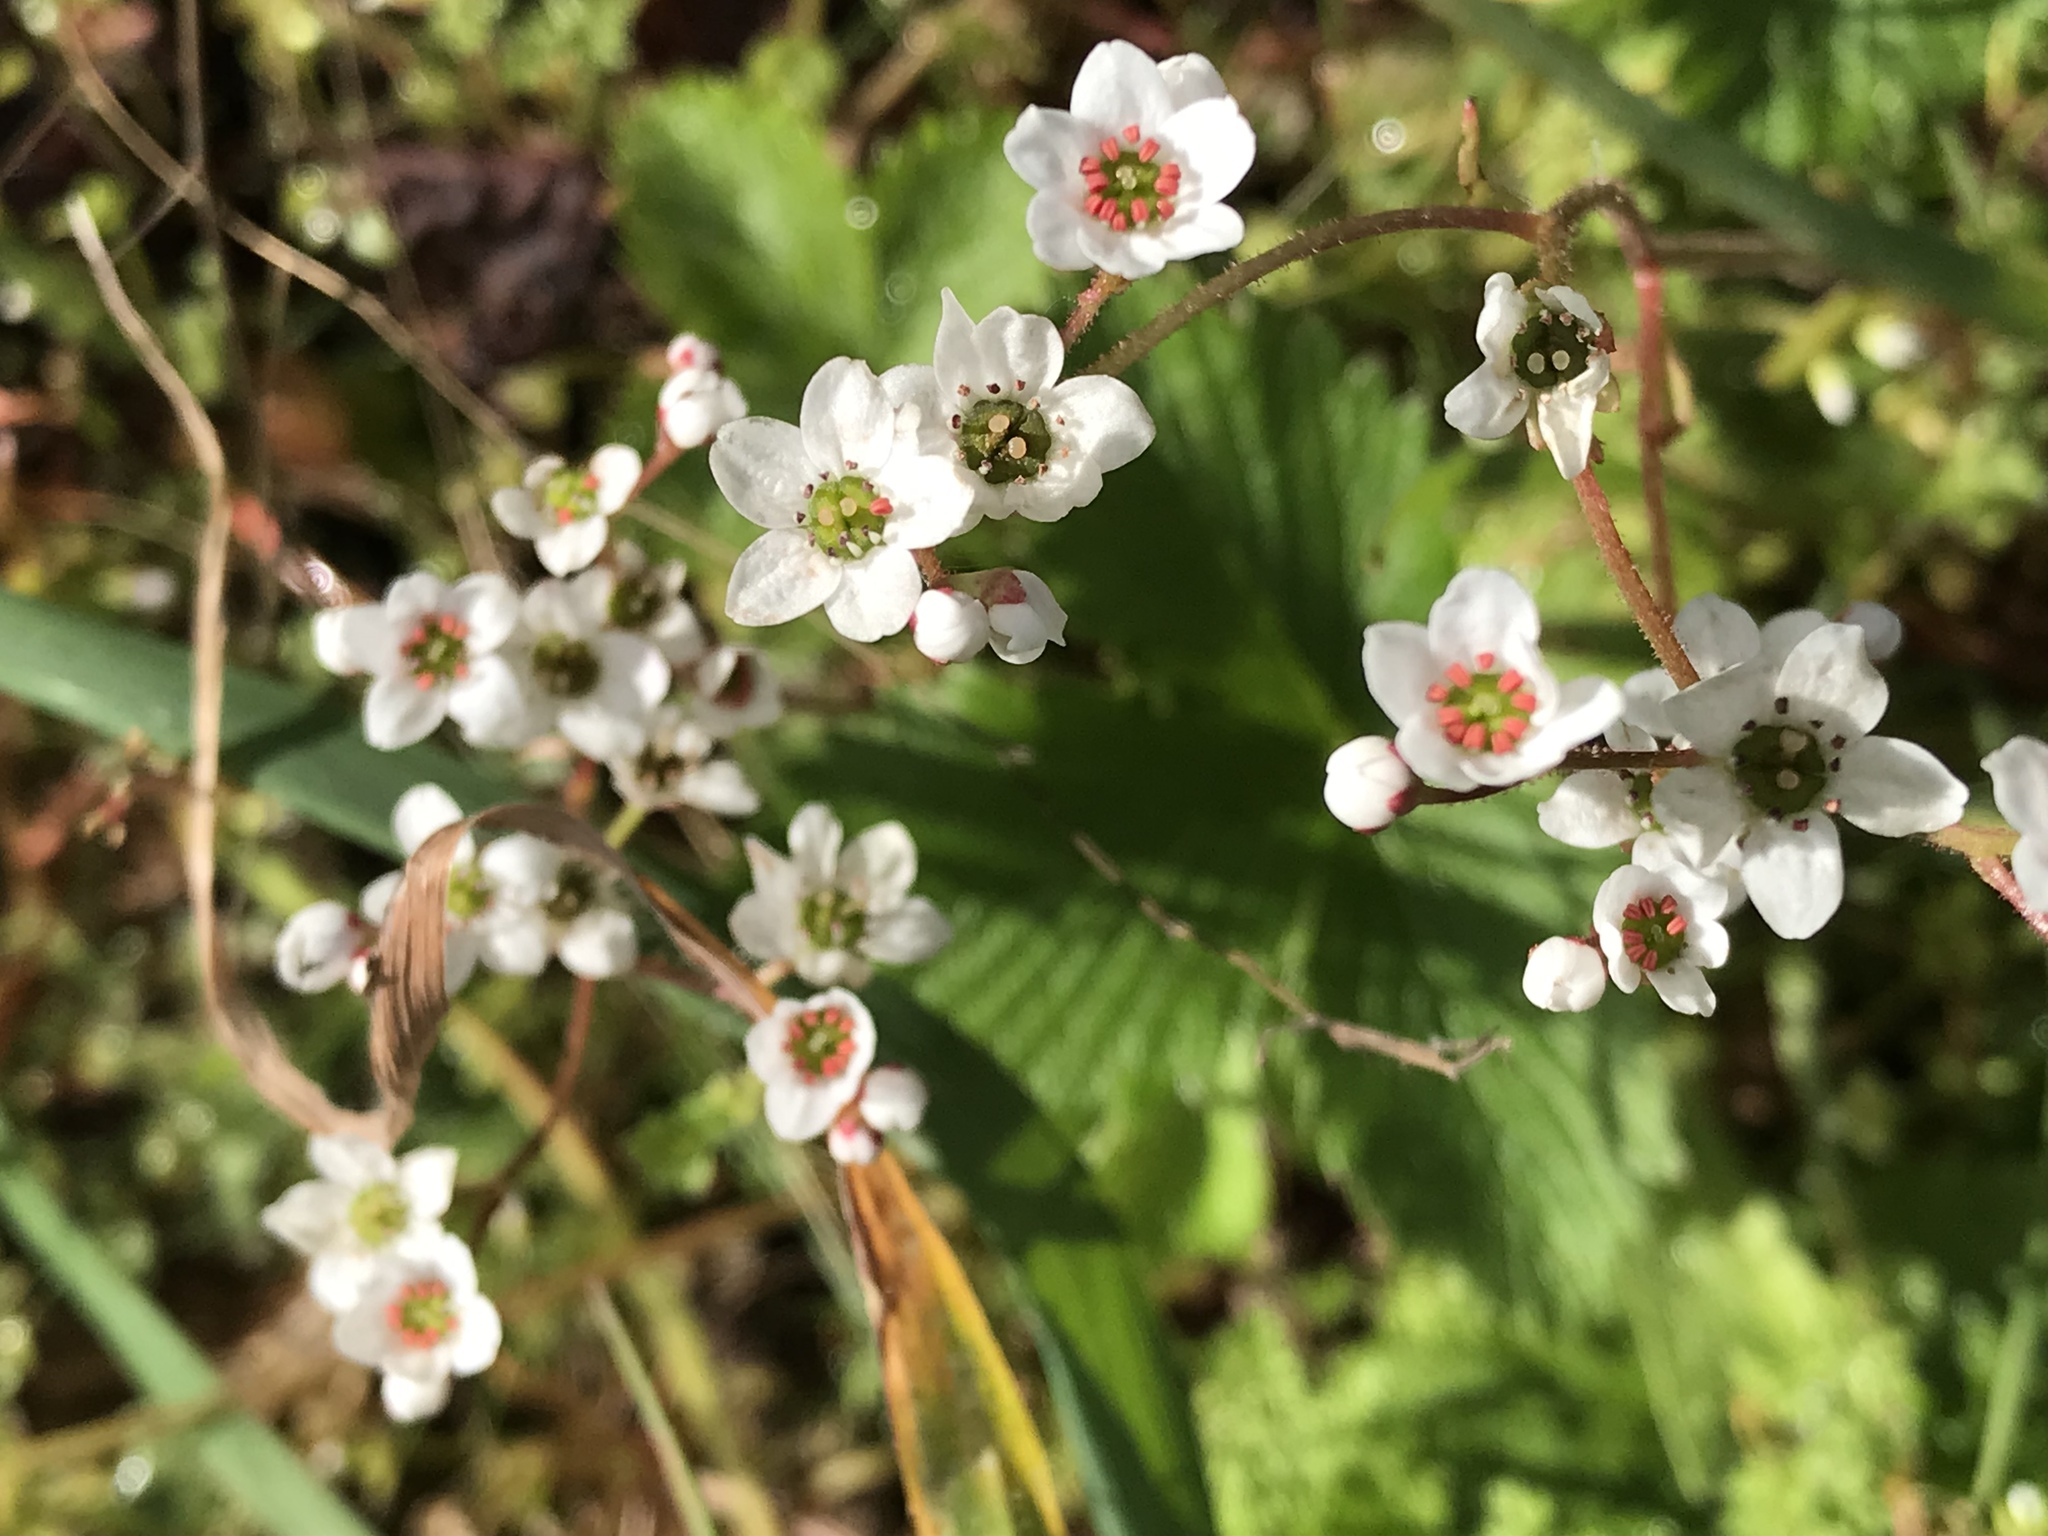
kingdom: Plantae
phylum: Tracheophyta
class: Magnoliopsida
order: Saxifragales
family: Saxifragaceae
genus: Micranthes
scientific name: Micranthes californica
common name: California saxifrage
